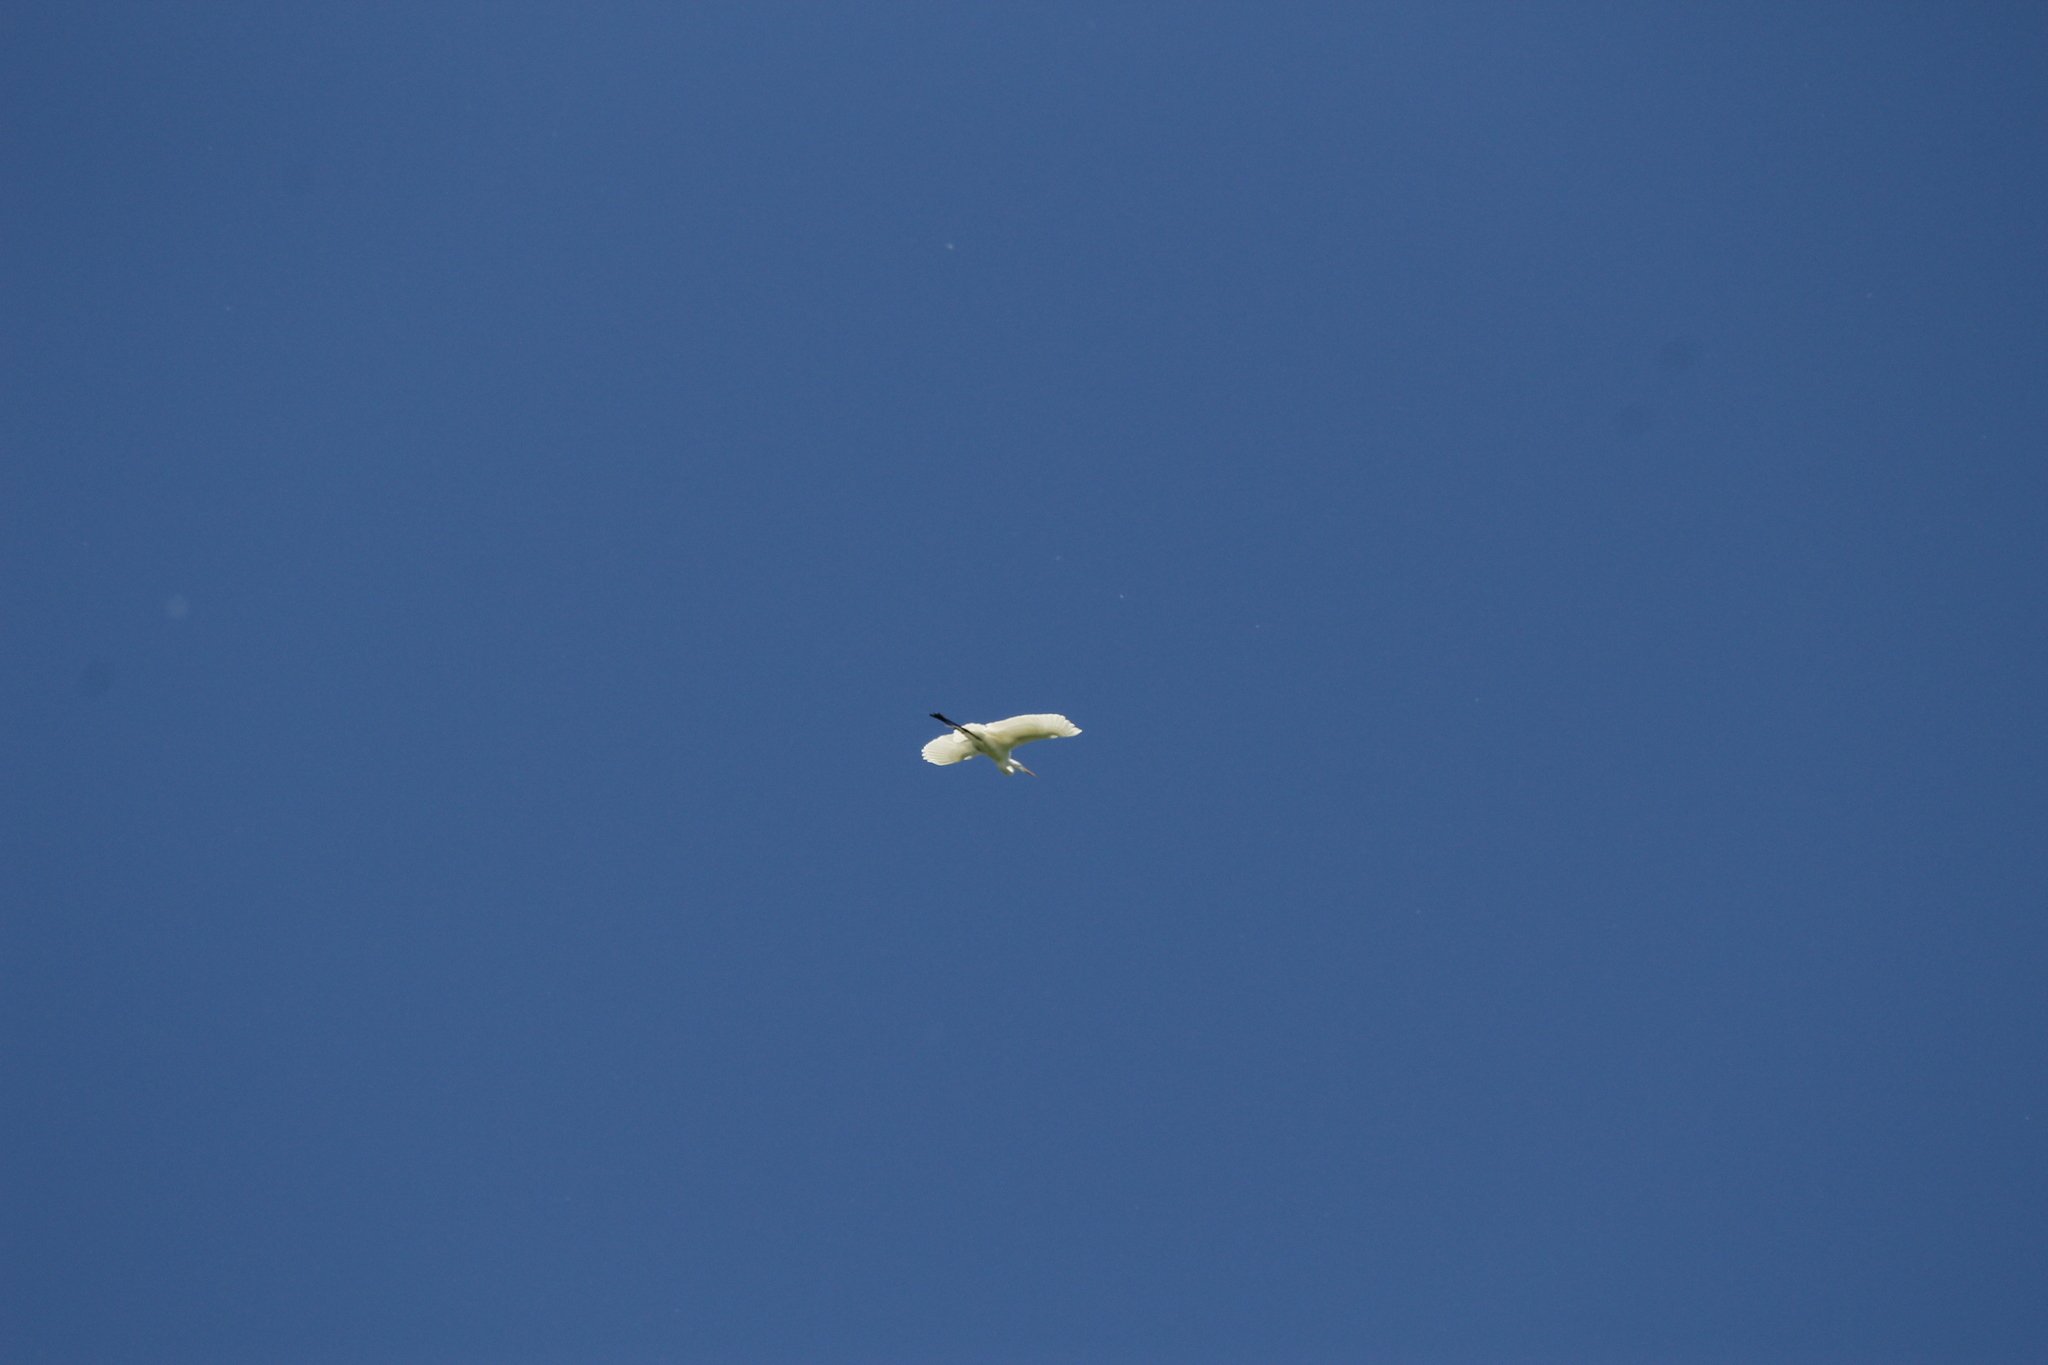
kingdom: Animalia
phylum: Chordata
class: Aves
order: Pelecaniformes
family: Ardeidae
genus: Ardea
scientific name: Ardea alba
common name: Great egret
